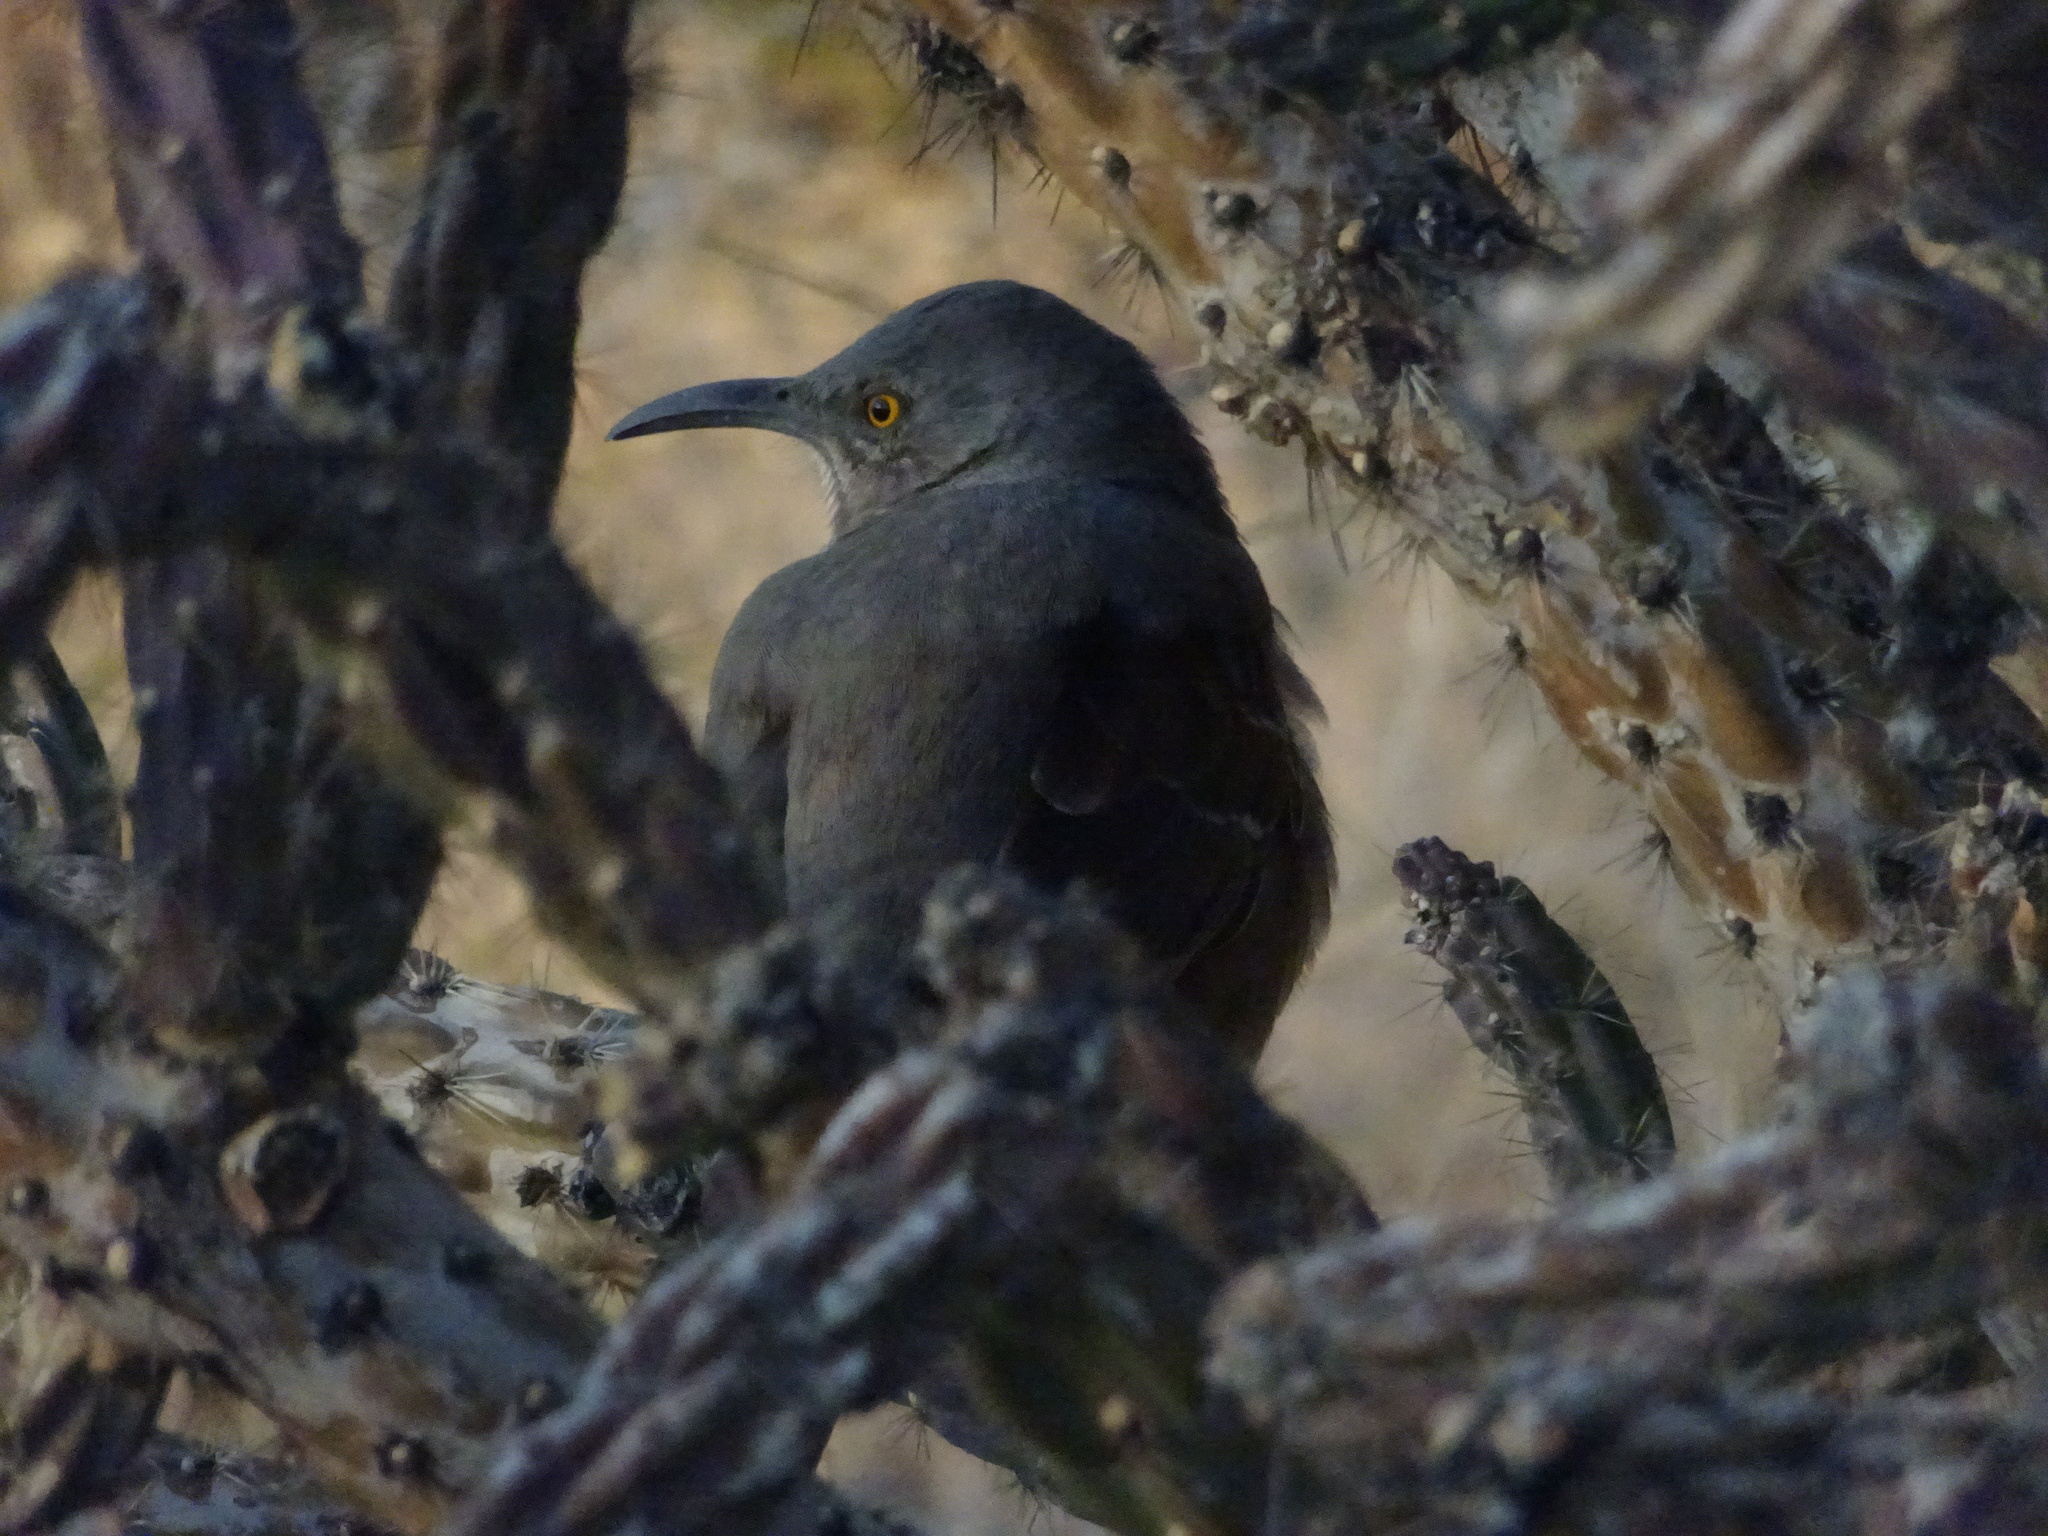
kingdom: Animalia
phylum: Chordata
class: Aves
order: Passeriformes
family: Mimidae
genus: Toxostoma
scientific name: Toxostoma curvirostre
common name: Curve-billed thrasher
